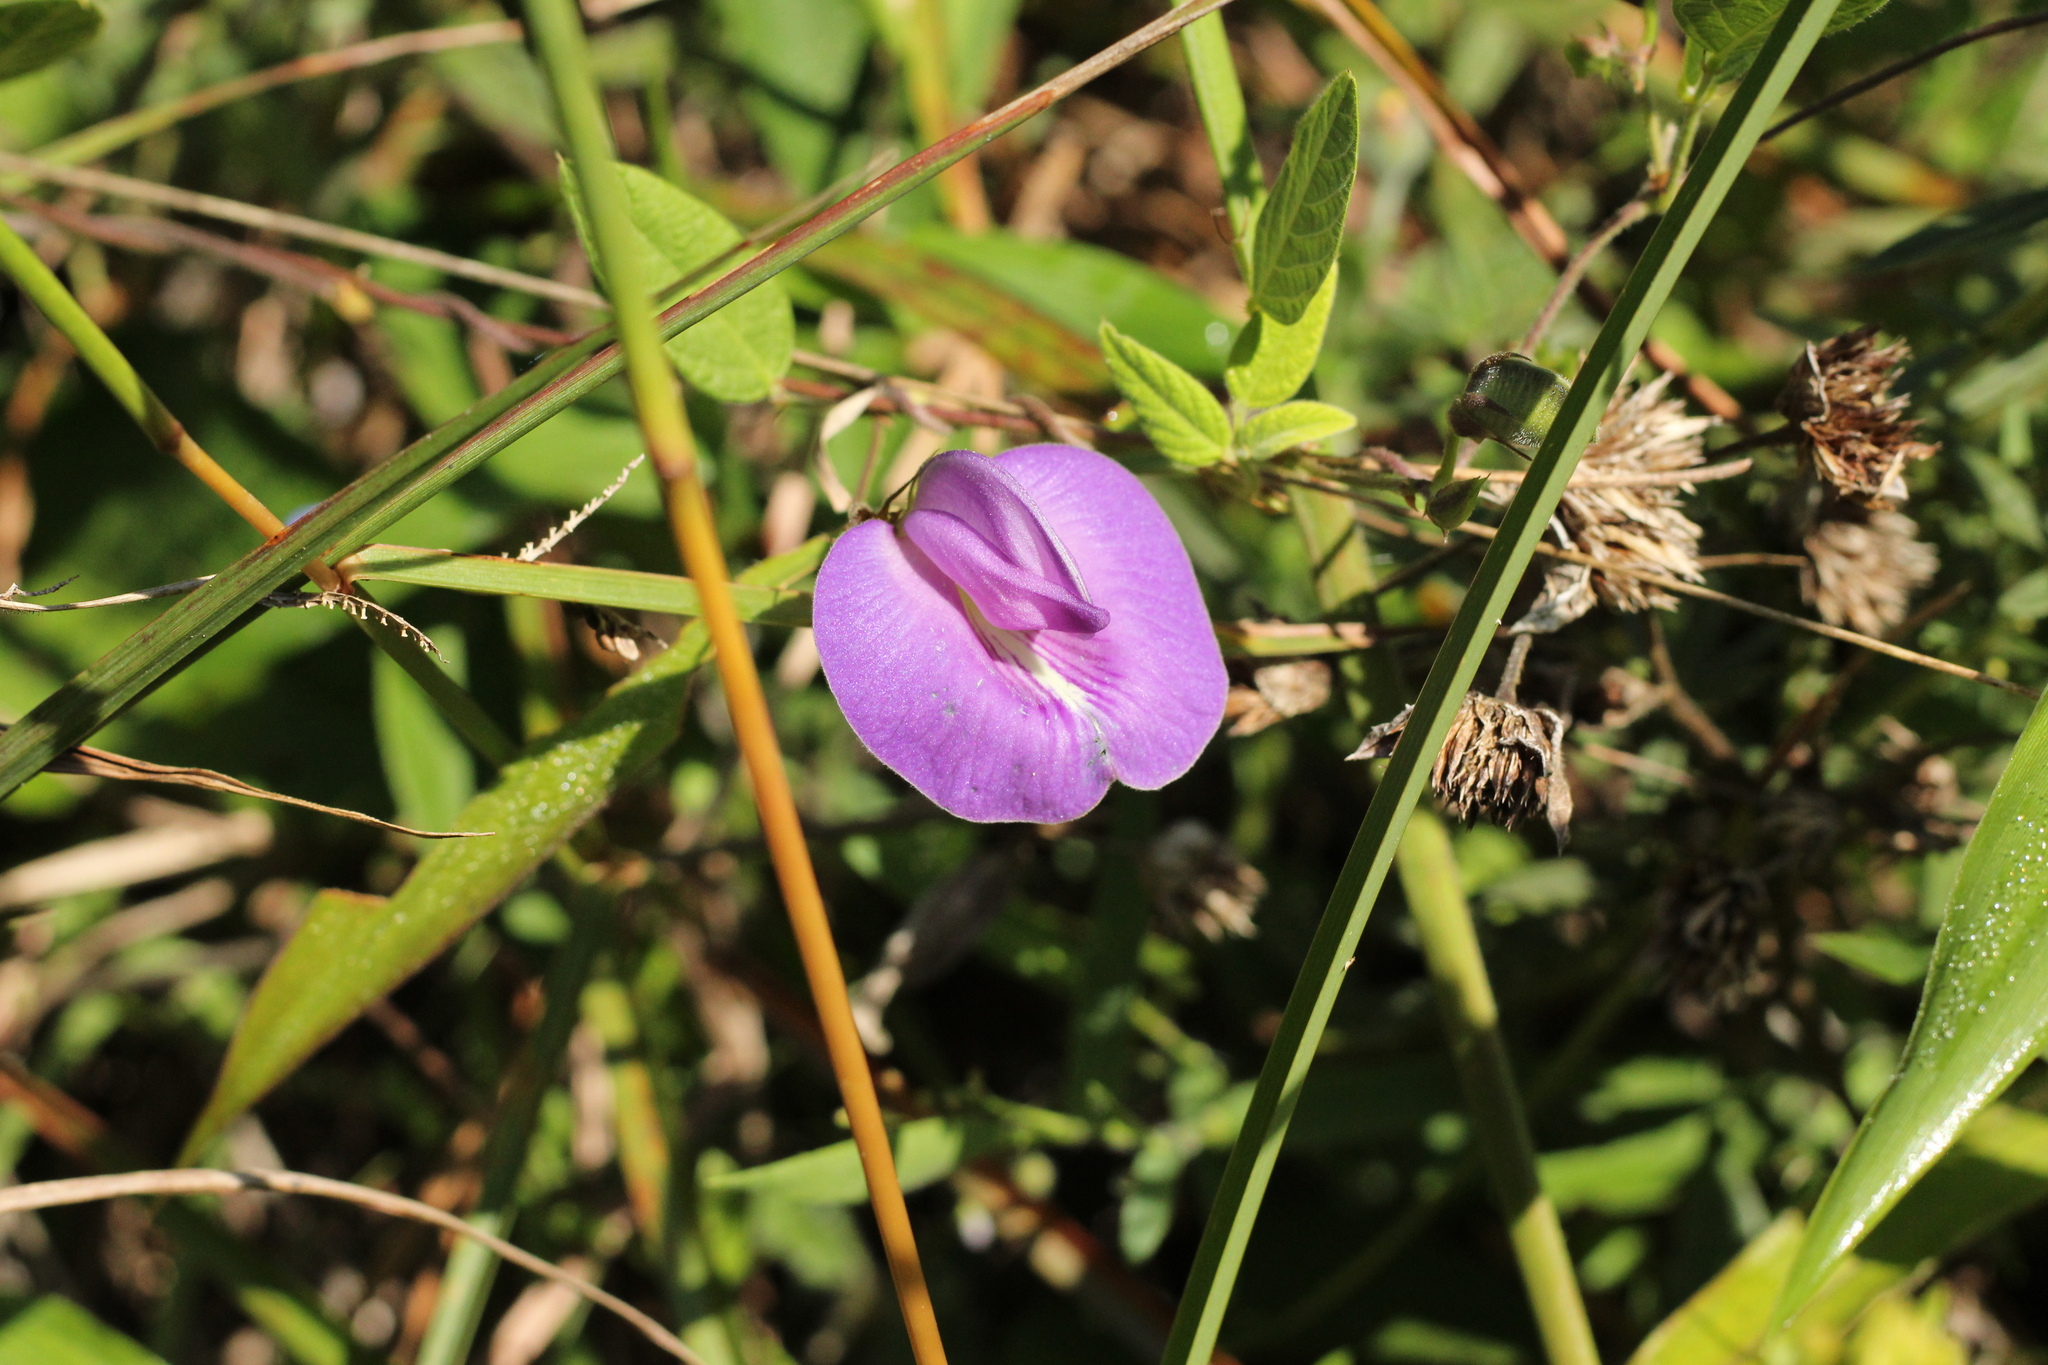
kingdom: Plantae
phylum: Tracheophyta
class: Magnoliopsida
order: Fabales
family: Fabaceae
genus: Centrosema
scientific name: Centrosema virginianum
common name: Butterfly-pea
